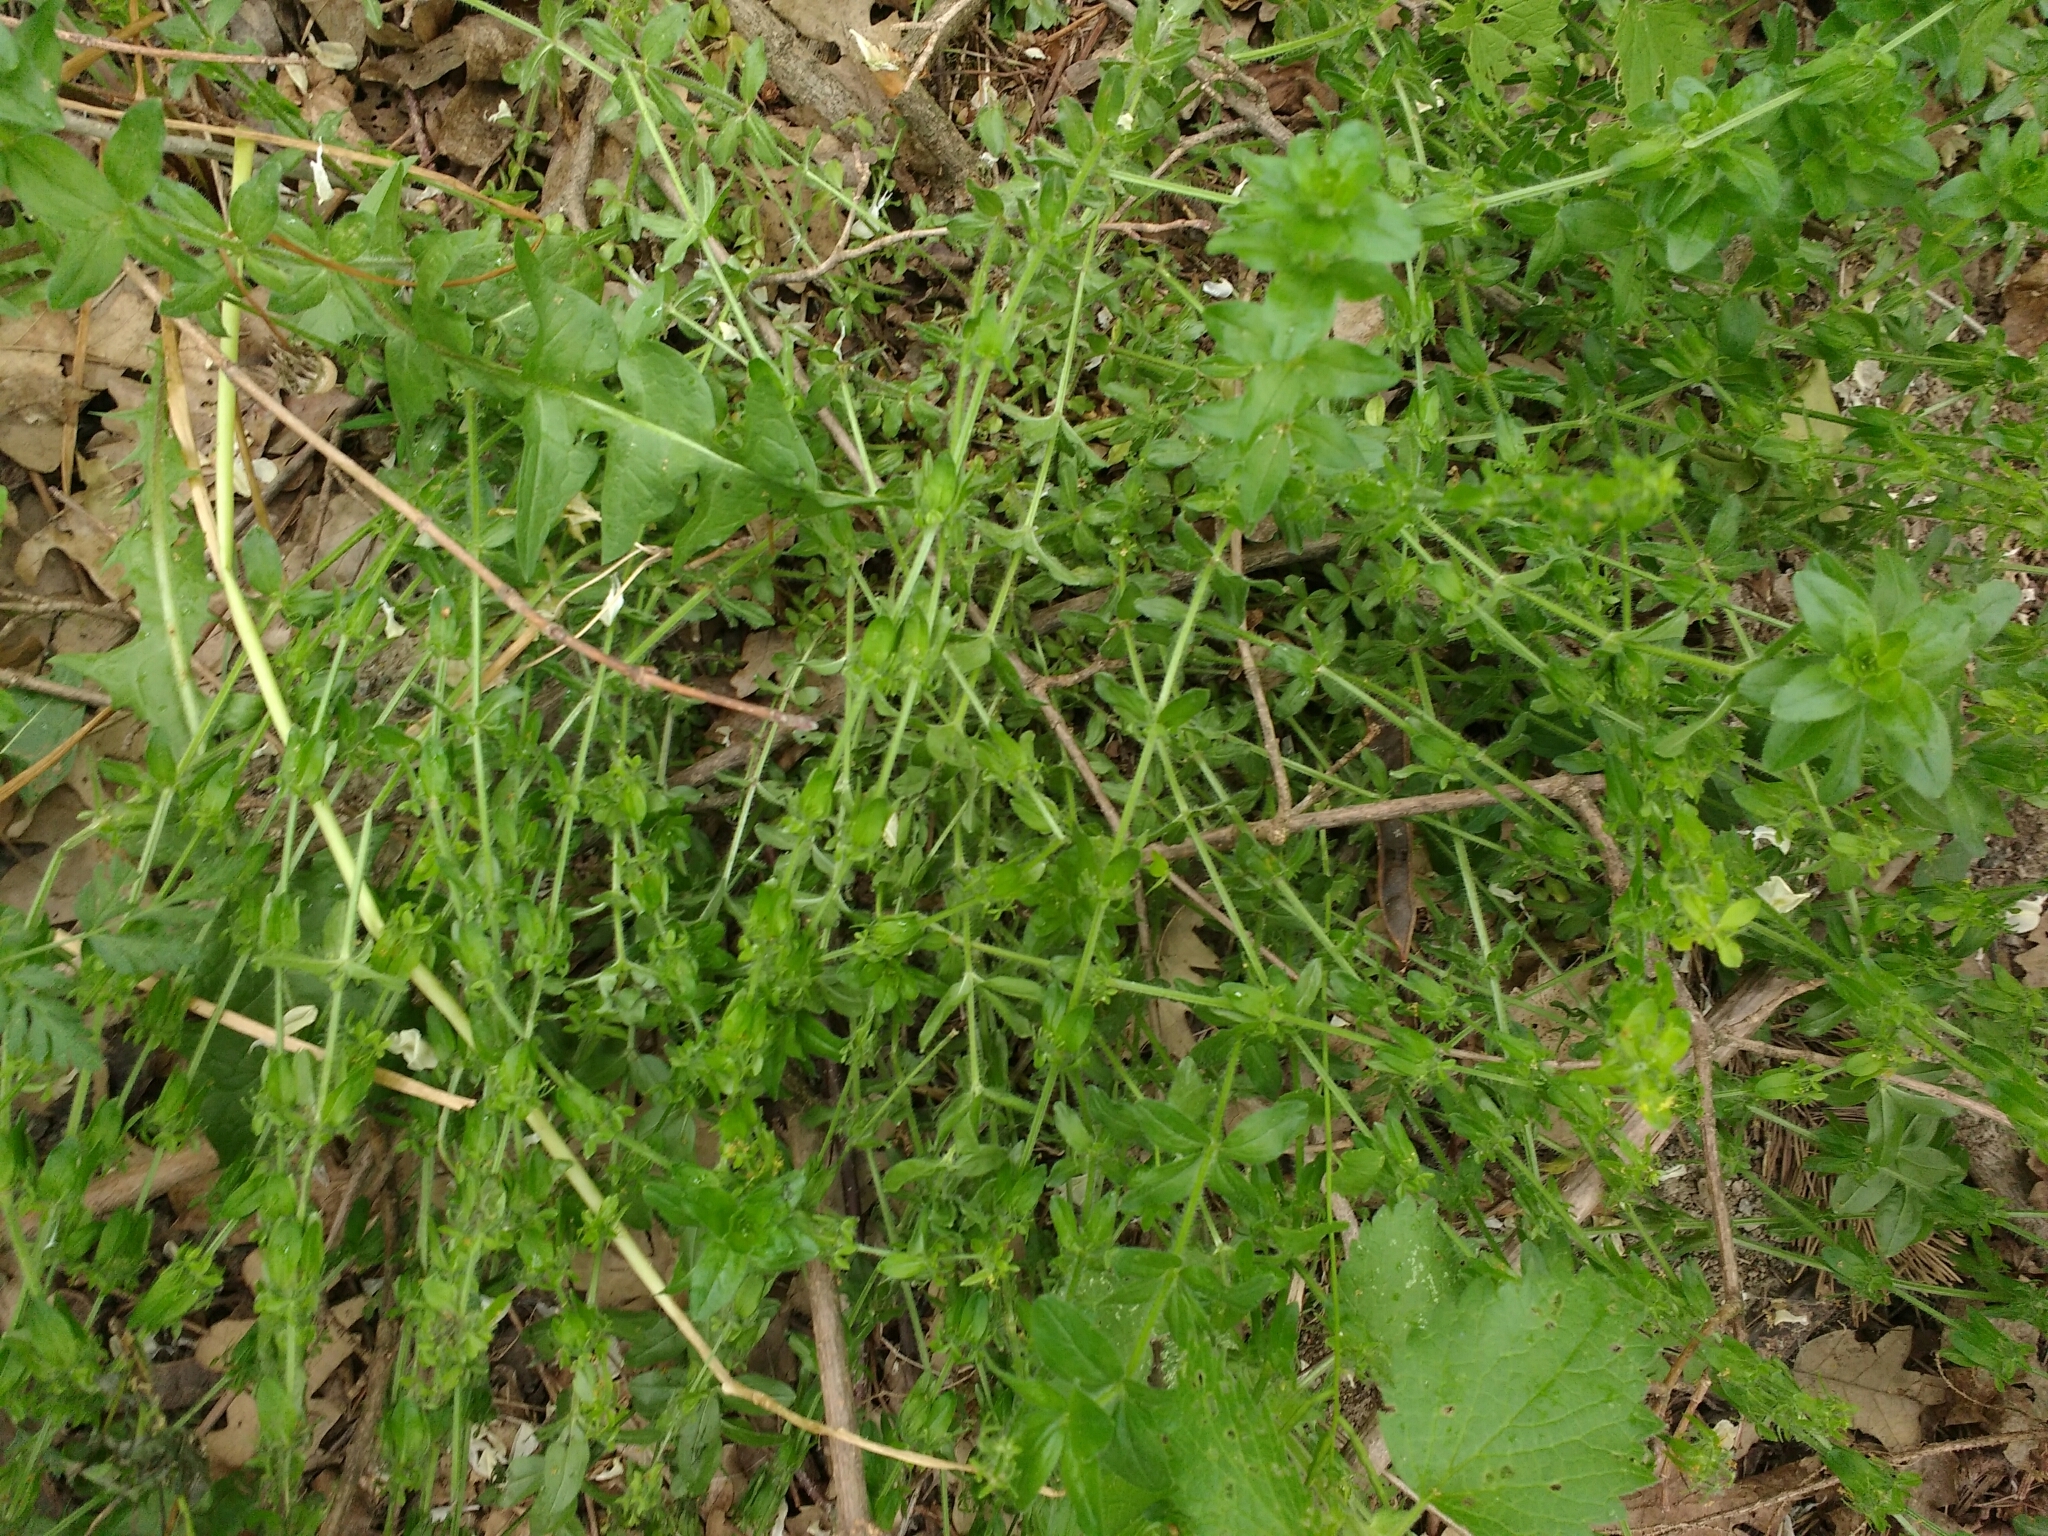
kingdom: Plantae
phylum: Tracheophyta
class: Magnoliopsida
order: Gentianales
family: Rubiaceae
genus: Cruciata
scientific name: Cruciata laevipes
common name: Crosswort
